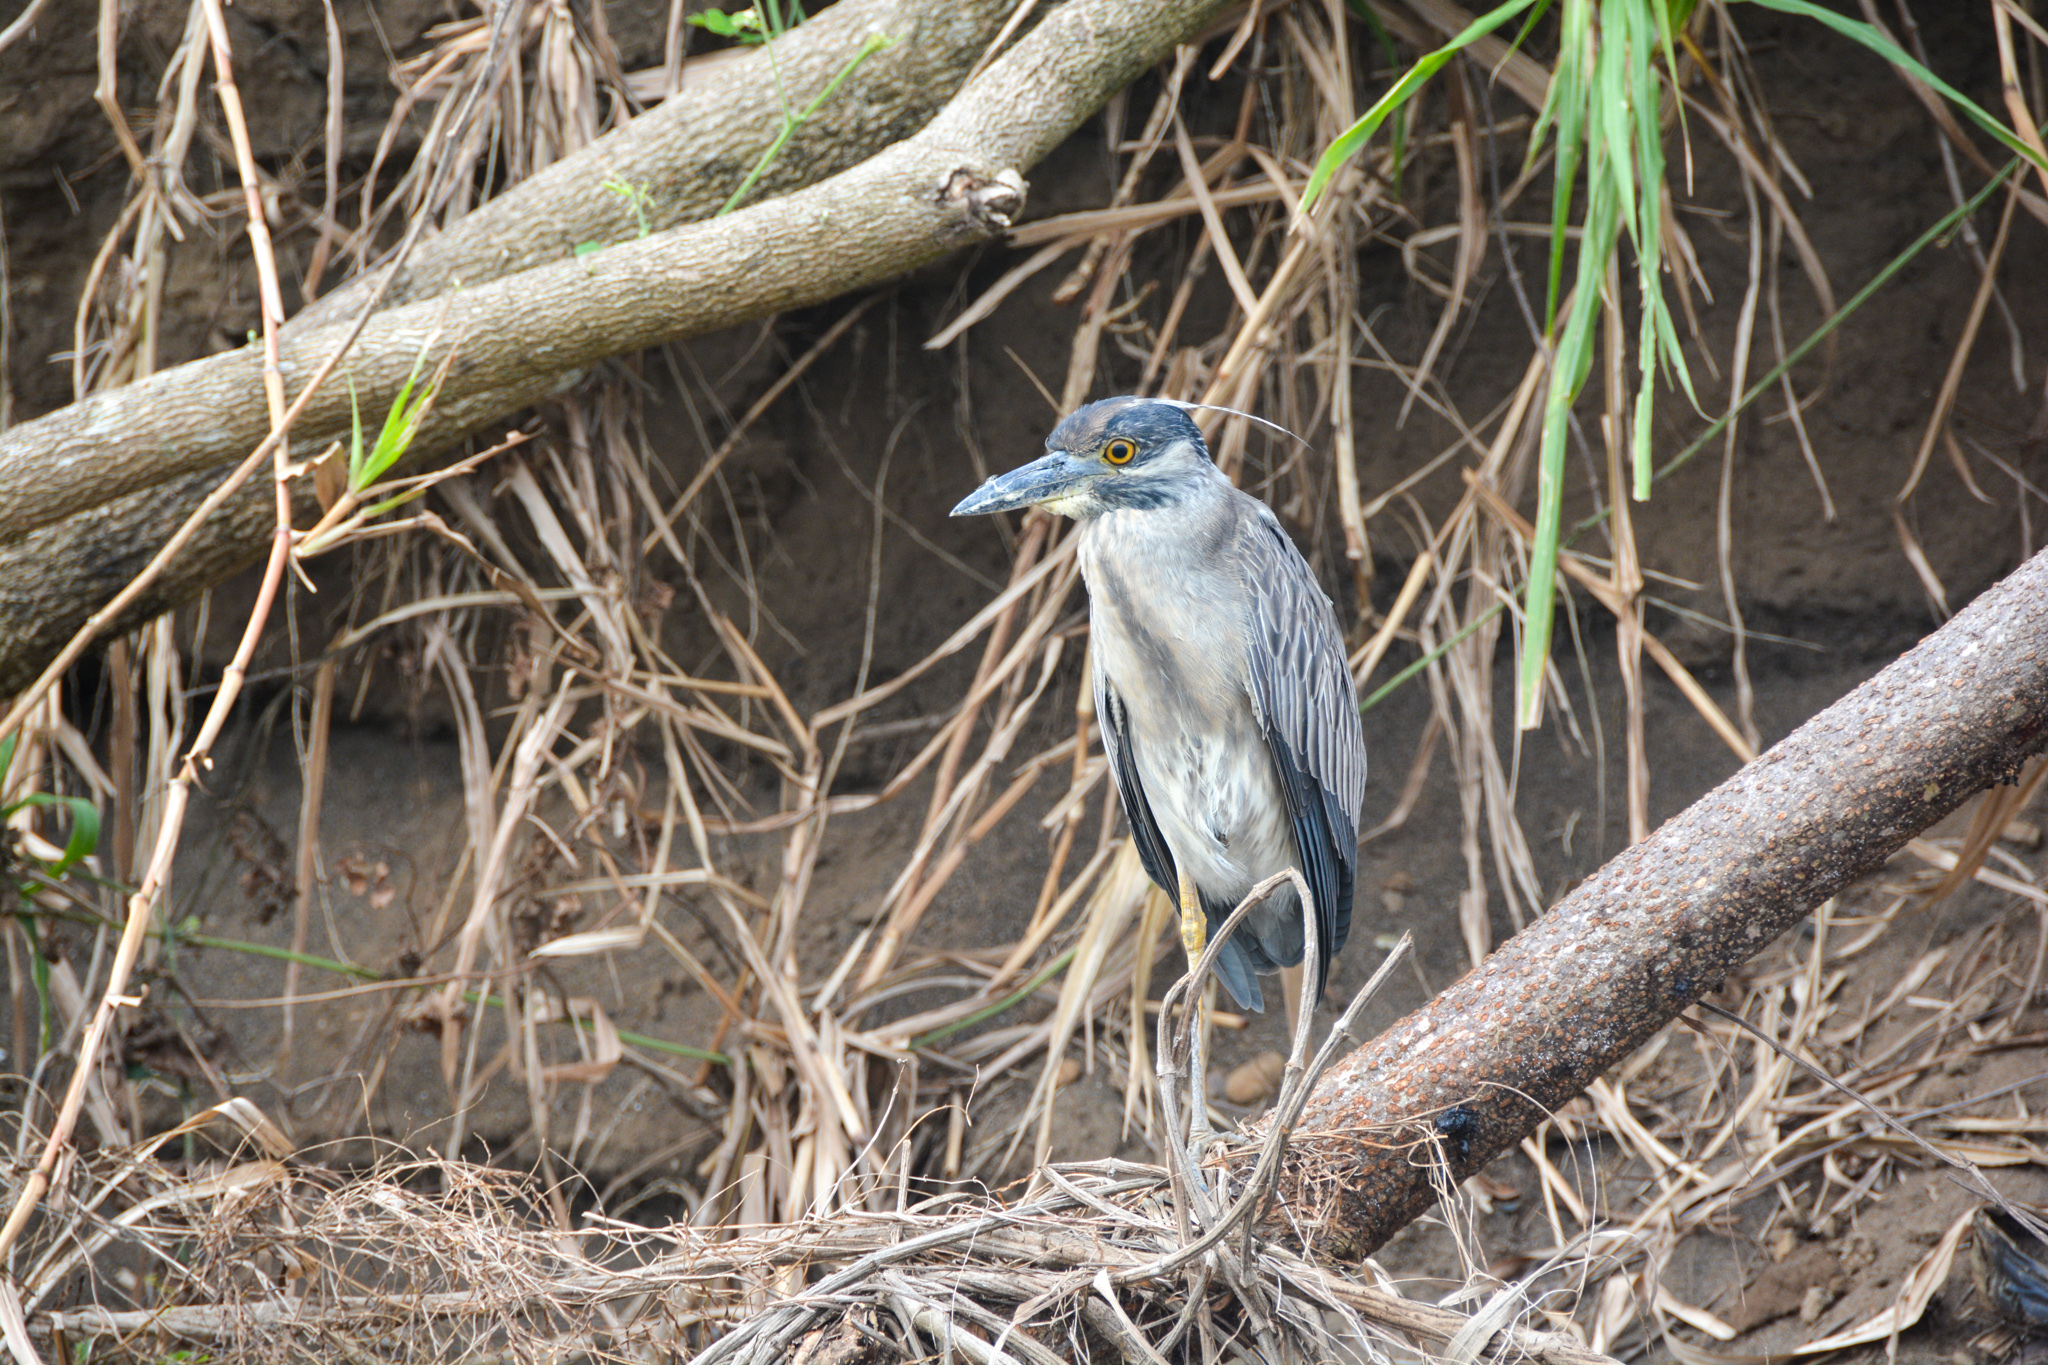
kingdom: Animalia
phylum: Chordata
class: Aves
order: Pelecaniformes
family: Ardeidae
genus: Nyctanassa
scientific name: Nyctanassa violacea
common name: Yellow-crowned night heron
